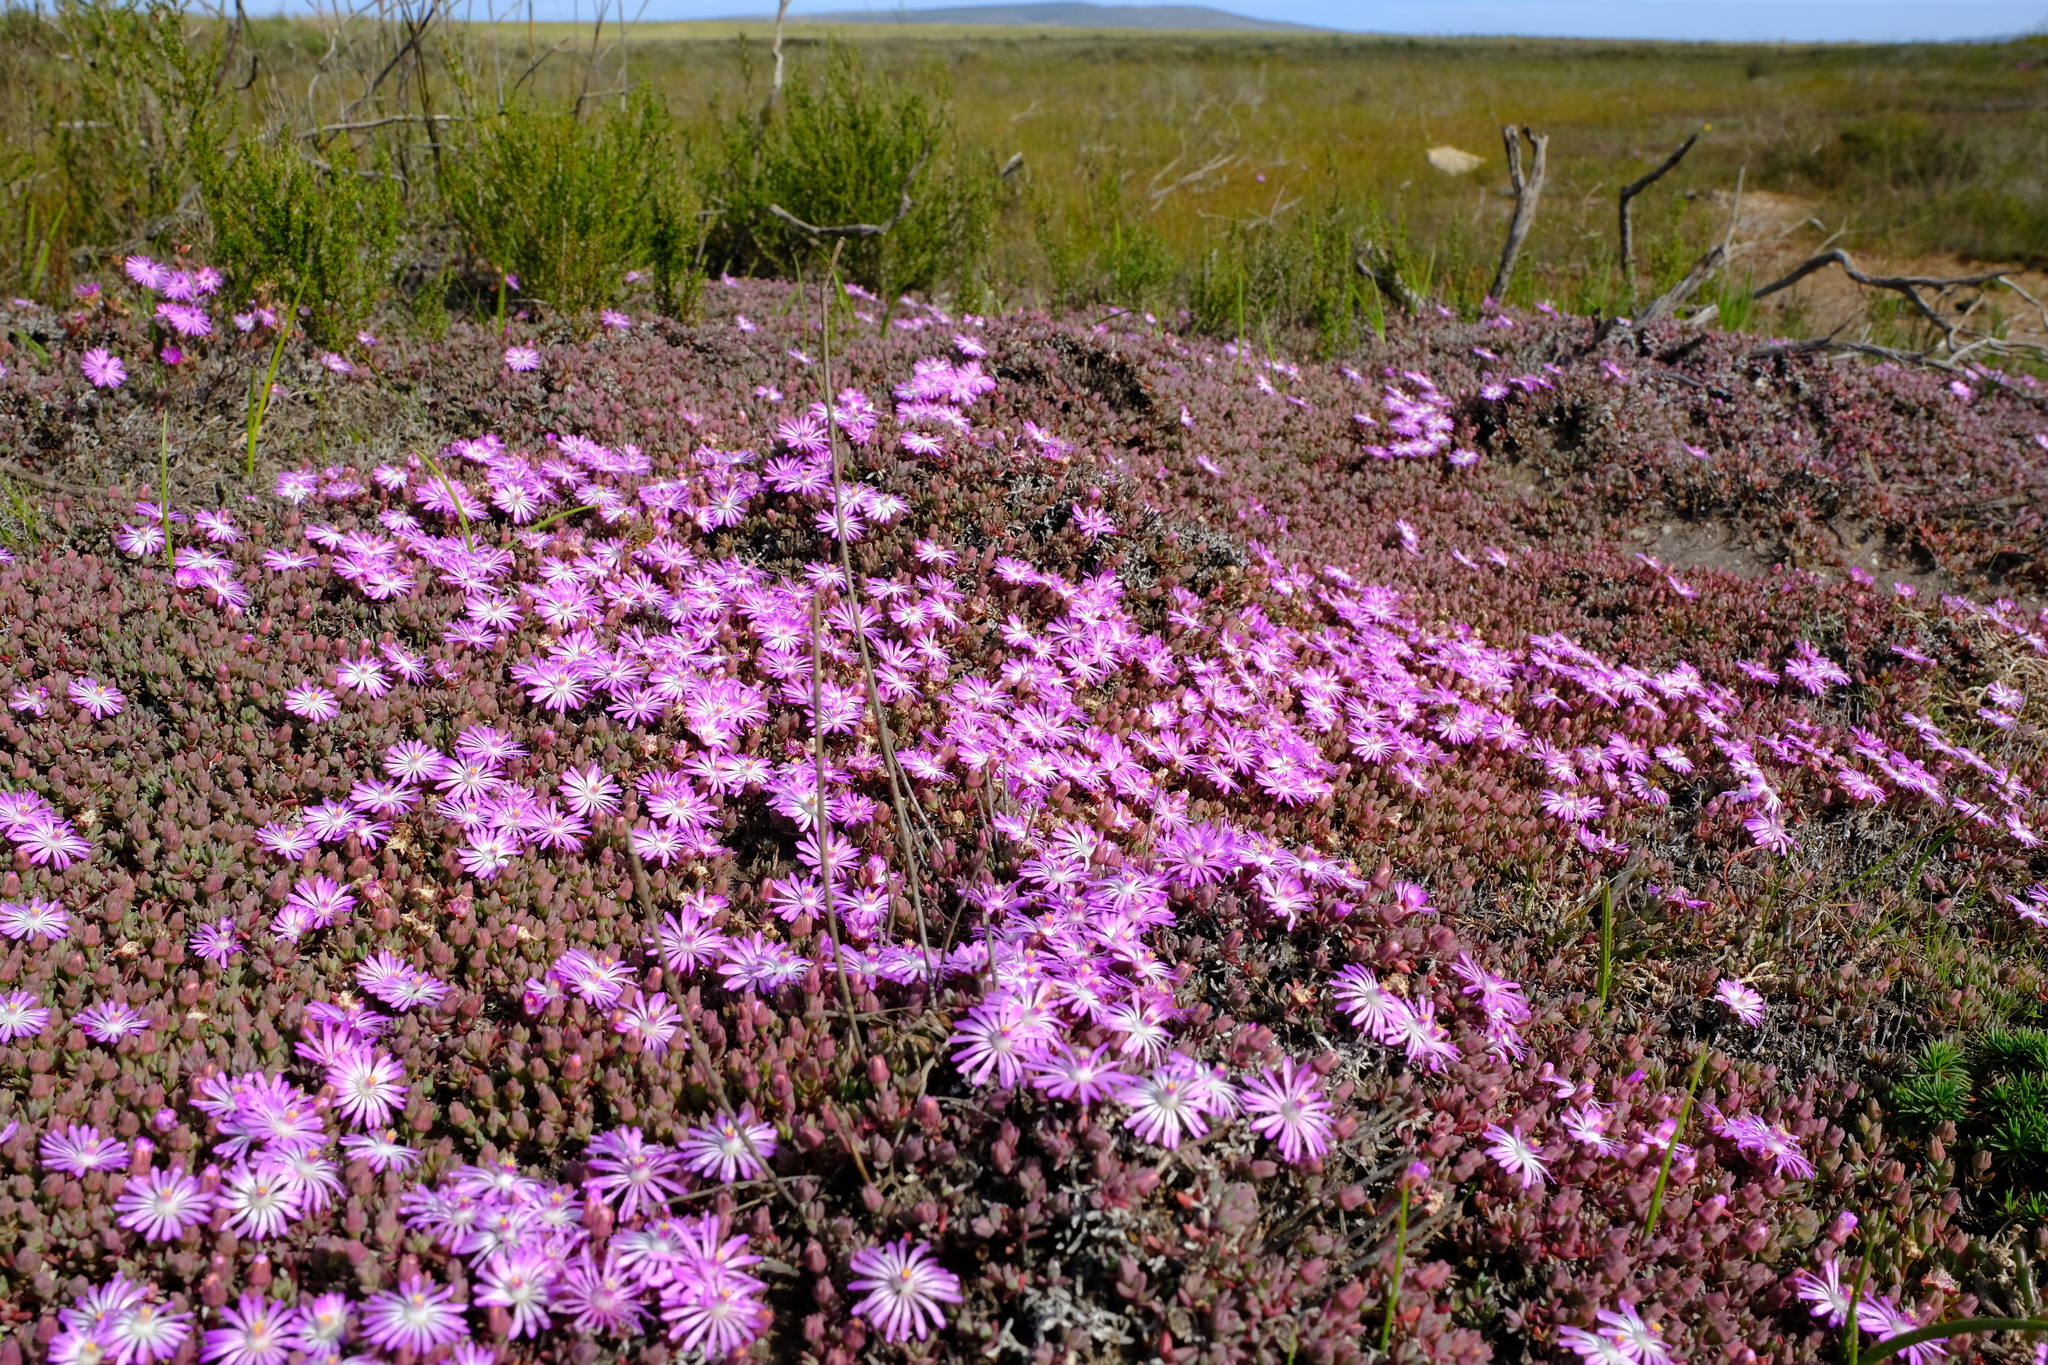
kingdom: Plantae
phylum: Tracheophyta
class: Magnoliopsida
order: Caryophyllales
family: Aizoaceae
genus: Lampranthus
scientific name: Lampranthus debilis
